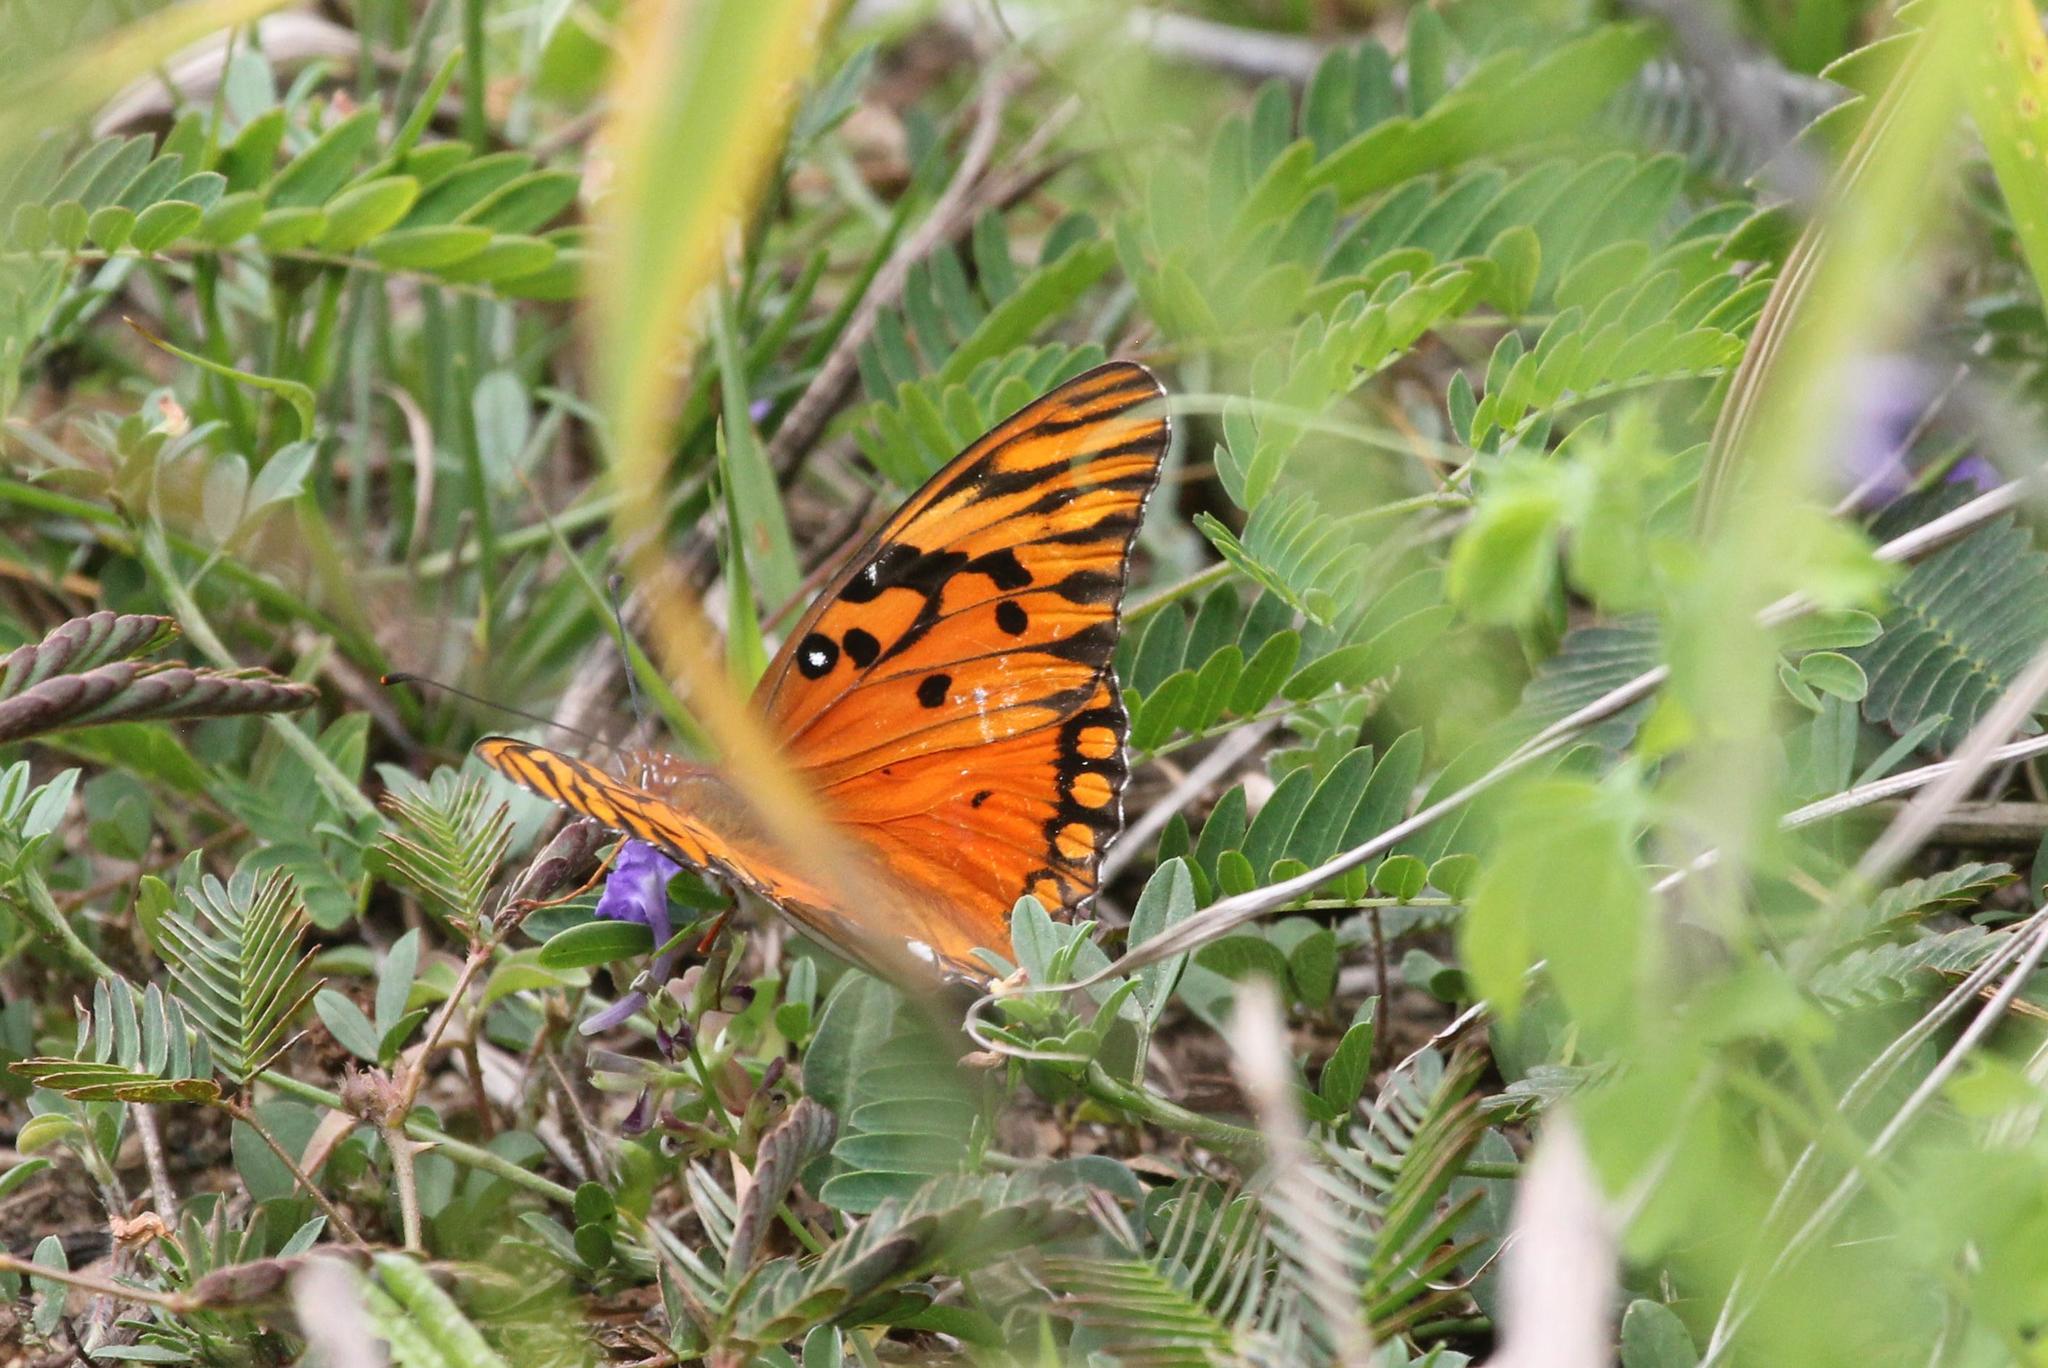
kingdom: Animalia
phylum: Arthropoda
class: Insecta
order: Lepidoptera
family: Nymphalidae
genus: Dione
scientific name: Dione vanillae
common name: Gulf fritillary
